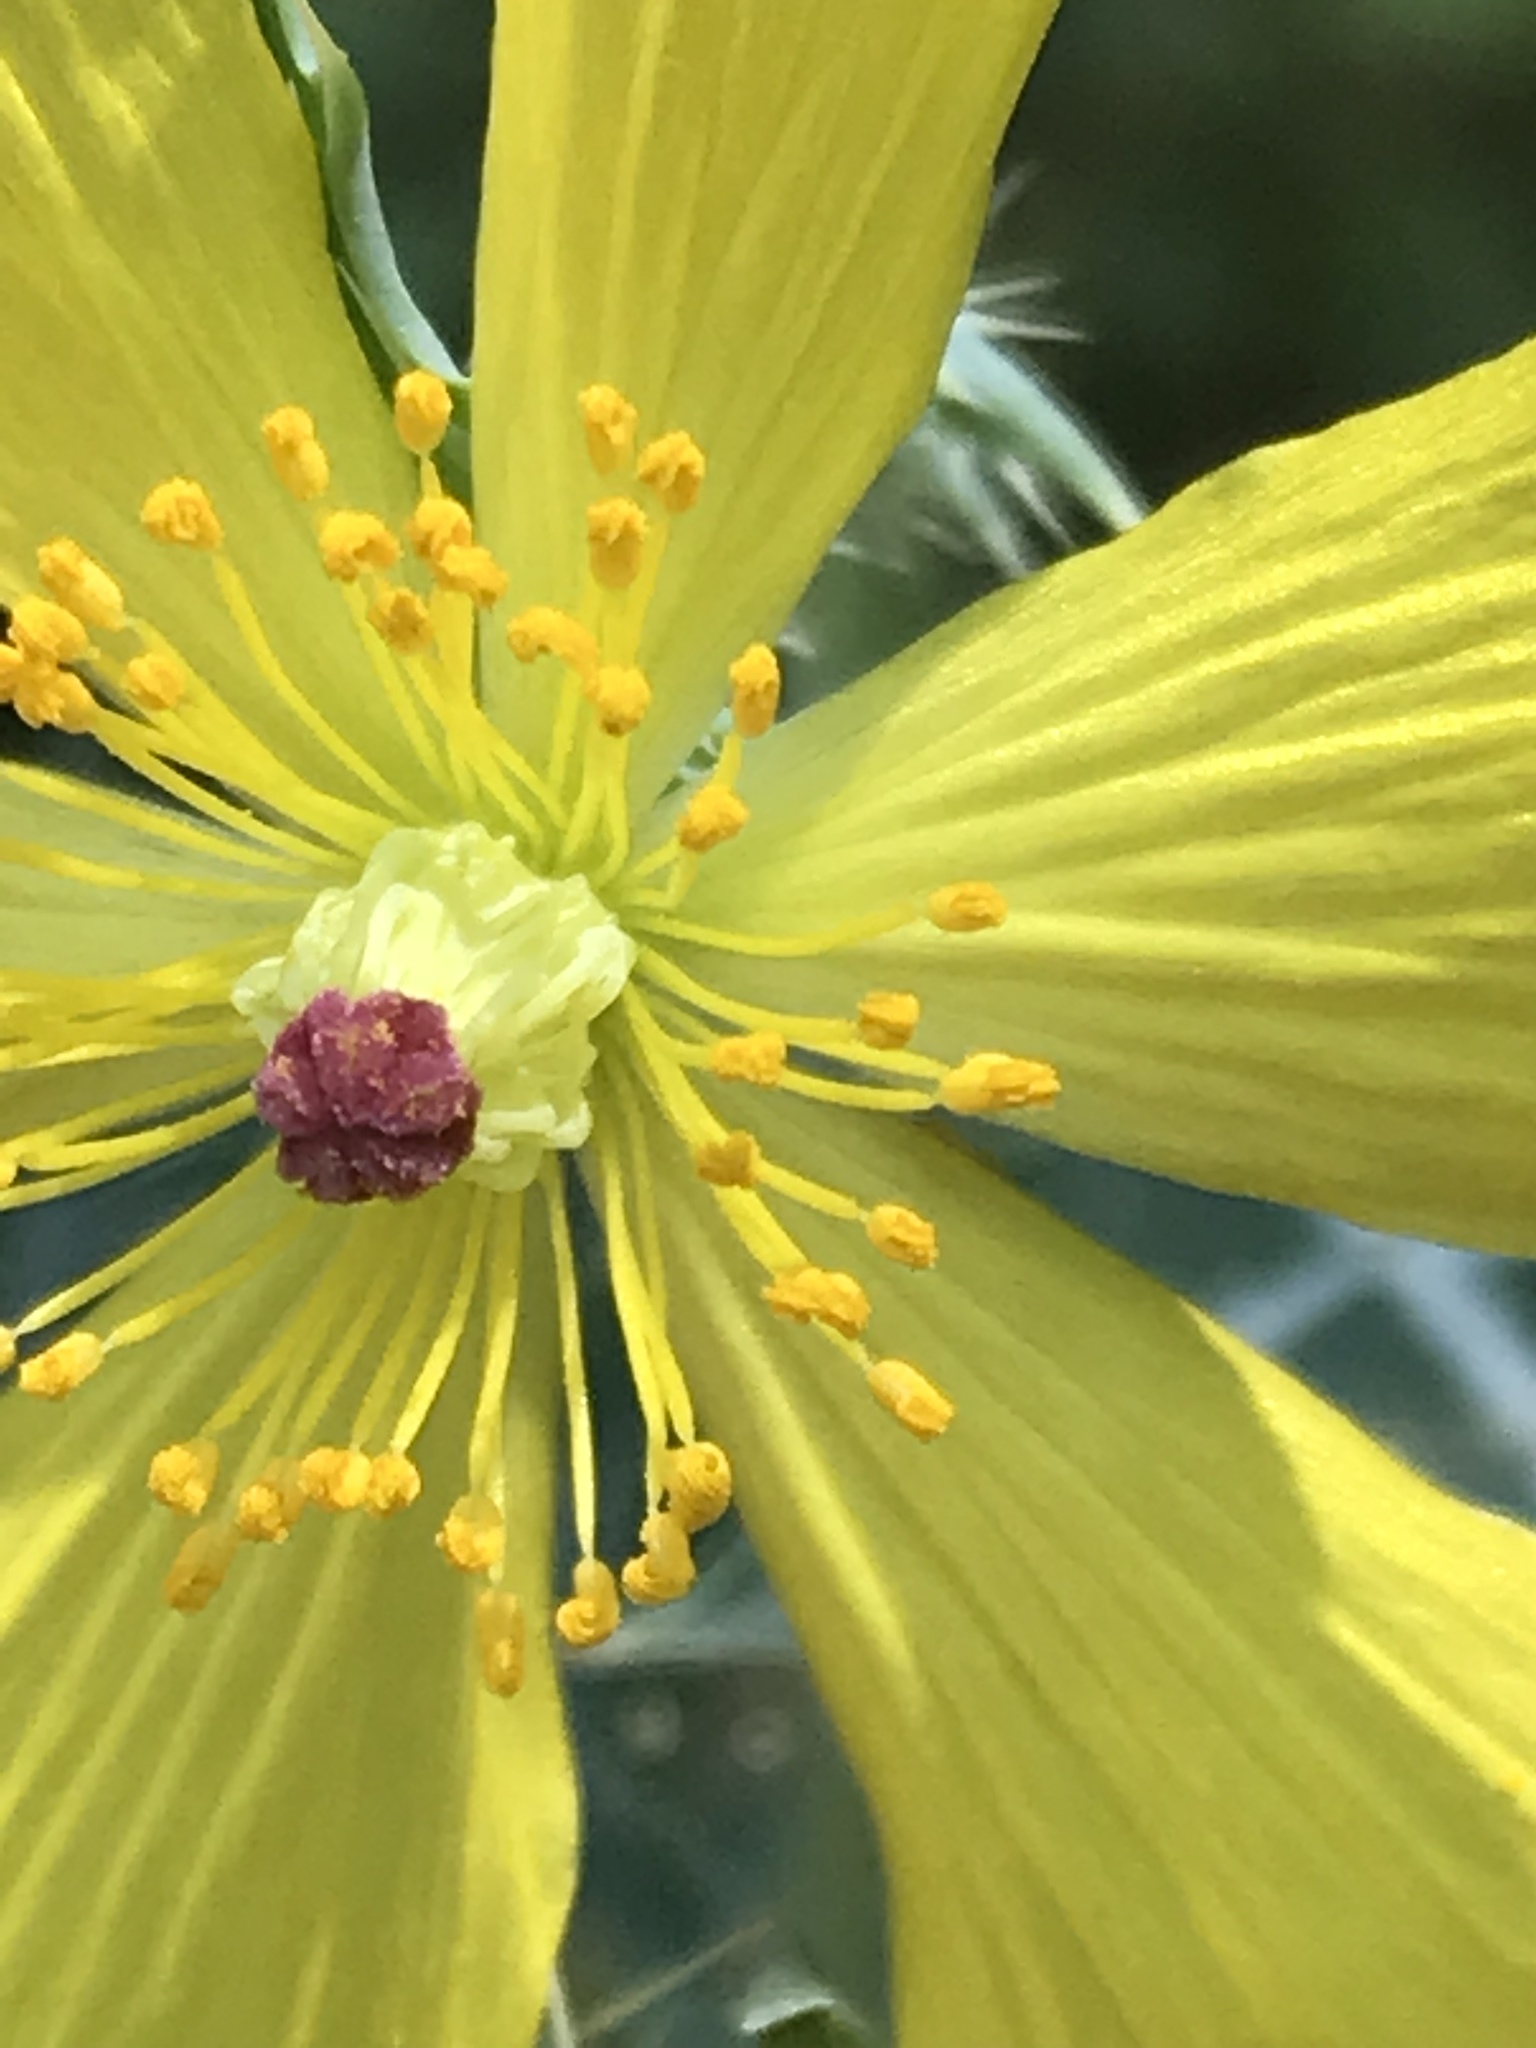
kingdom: Plantae
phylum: Tracheophyta
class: Magnoliopsida
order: Ranunculales
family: Papaveraceae
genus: Argemone
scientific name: Argemone mexicana
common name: Mexican poppy
